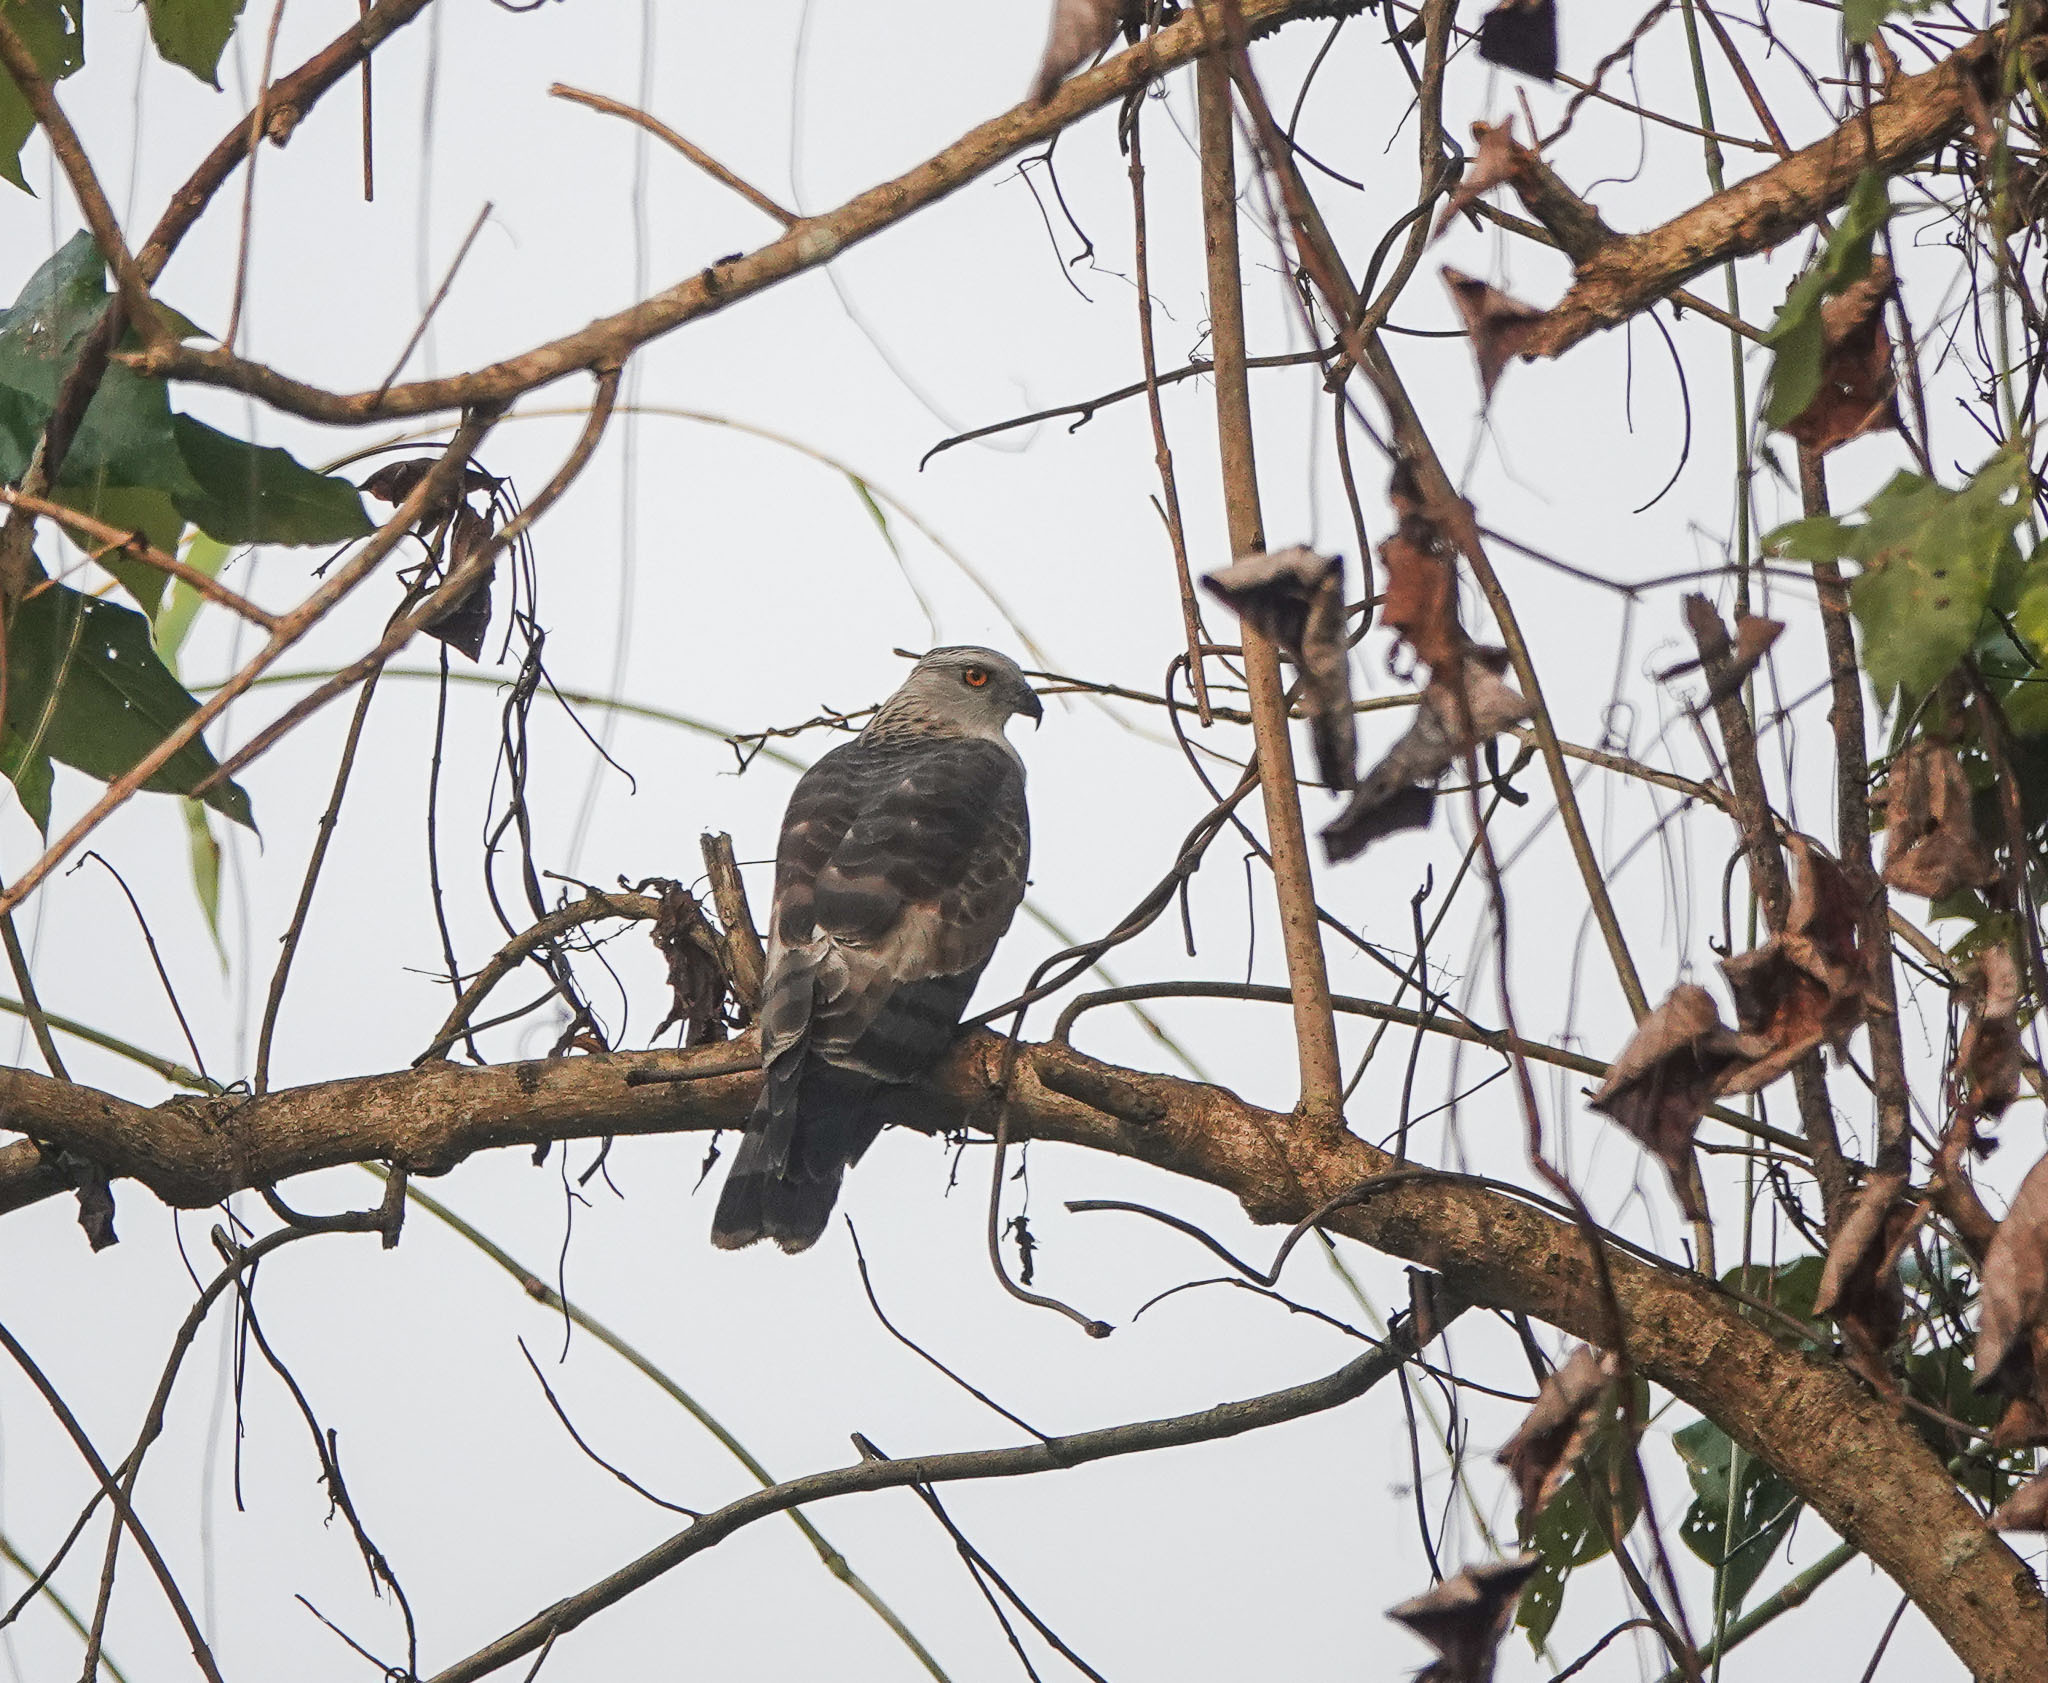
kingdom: Animalia
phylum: Chordata
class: Aves
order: Accipitriformes
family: Accipitridae
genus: Aviceda
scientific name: Aviceda jerdoni
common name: Jerdon's baza
